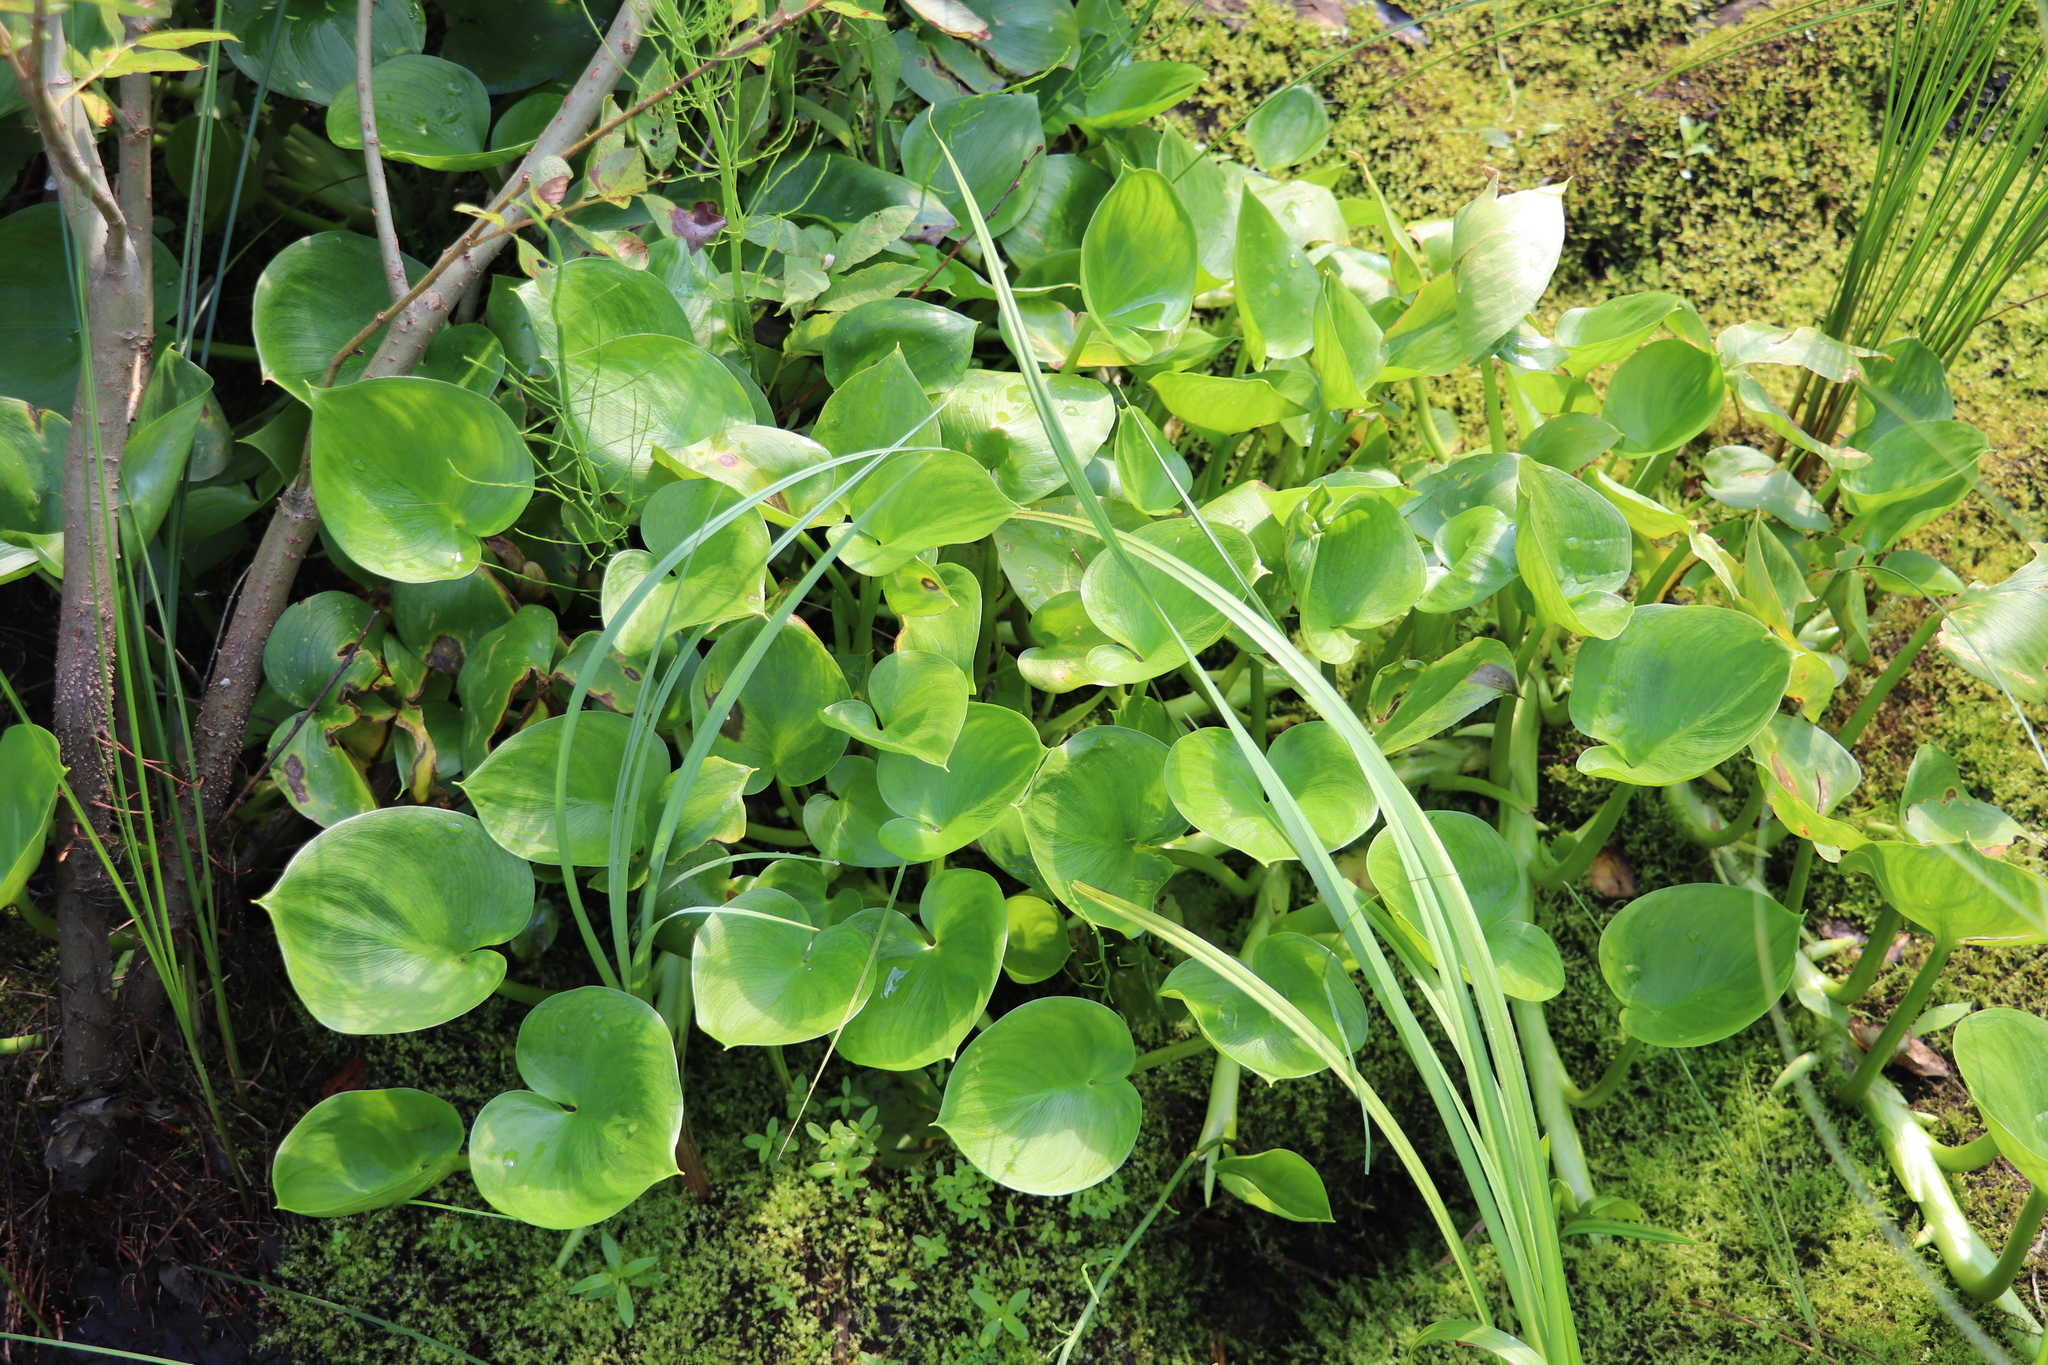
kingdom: Plantae
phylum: Tracheophyta
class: Liliopsida
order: Alismatales
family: Araceae
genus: Calla
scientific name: Calla palustris
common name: Bog arum
